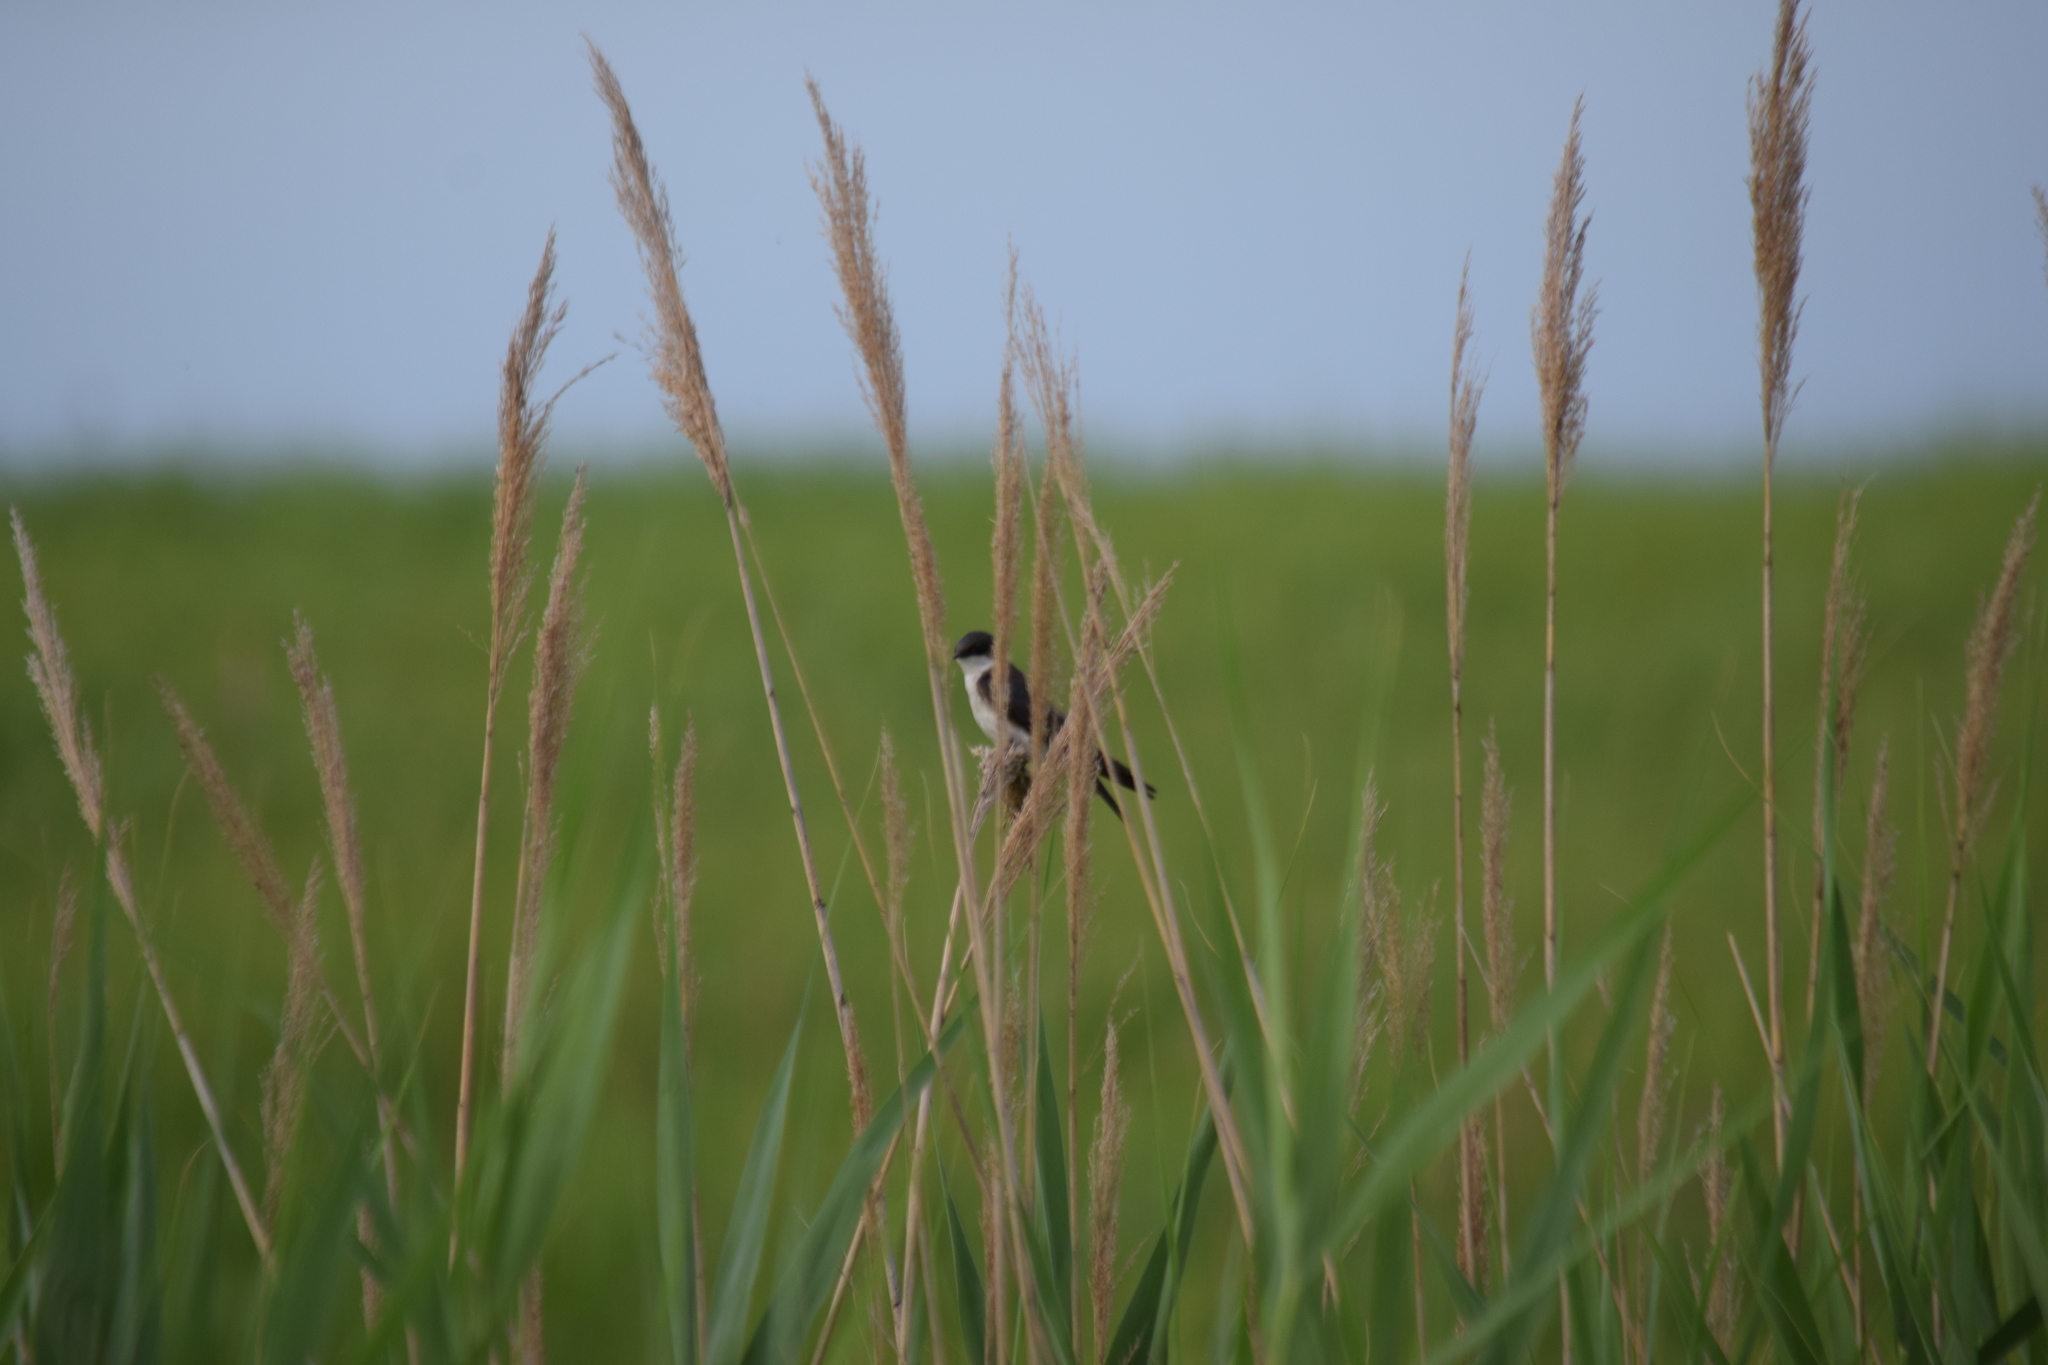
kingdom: Animalia
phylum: Chordata
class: Aves
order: Passeriformes
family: Hirundinidae
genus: Tachycineta
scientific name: Tachycineta bicolor
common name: Tree swallow
